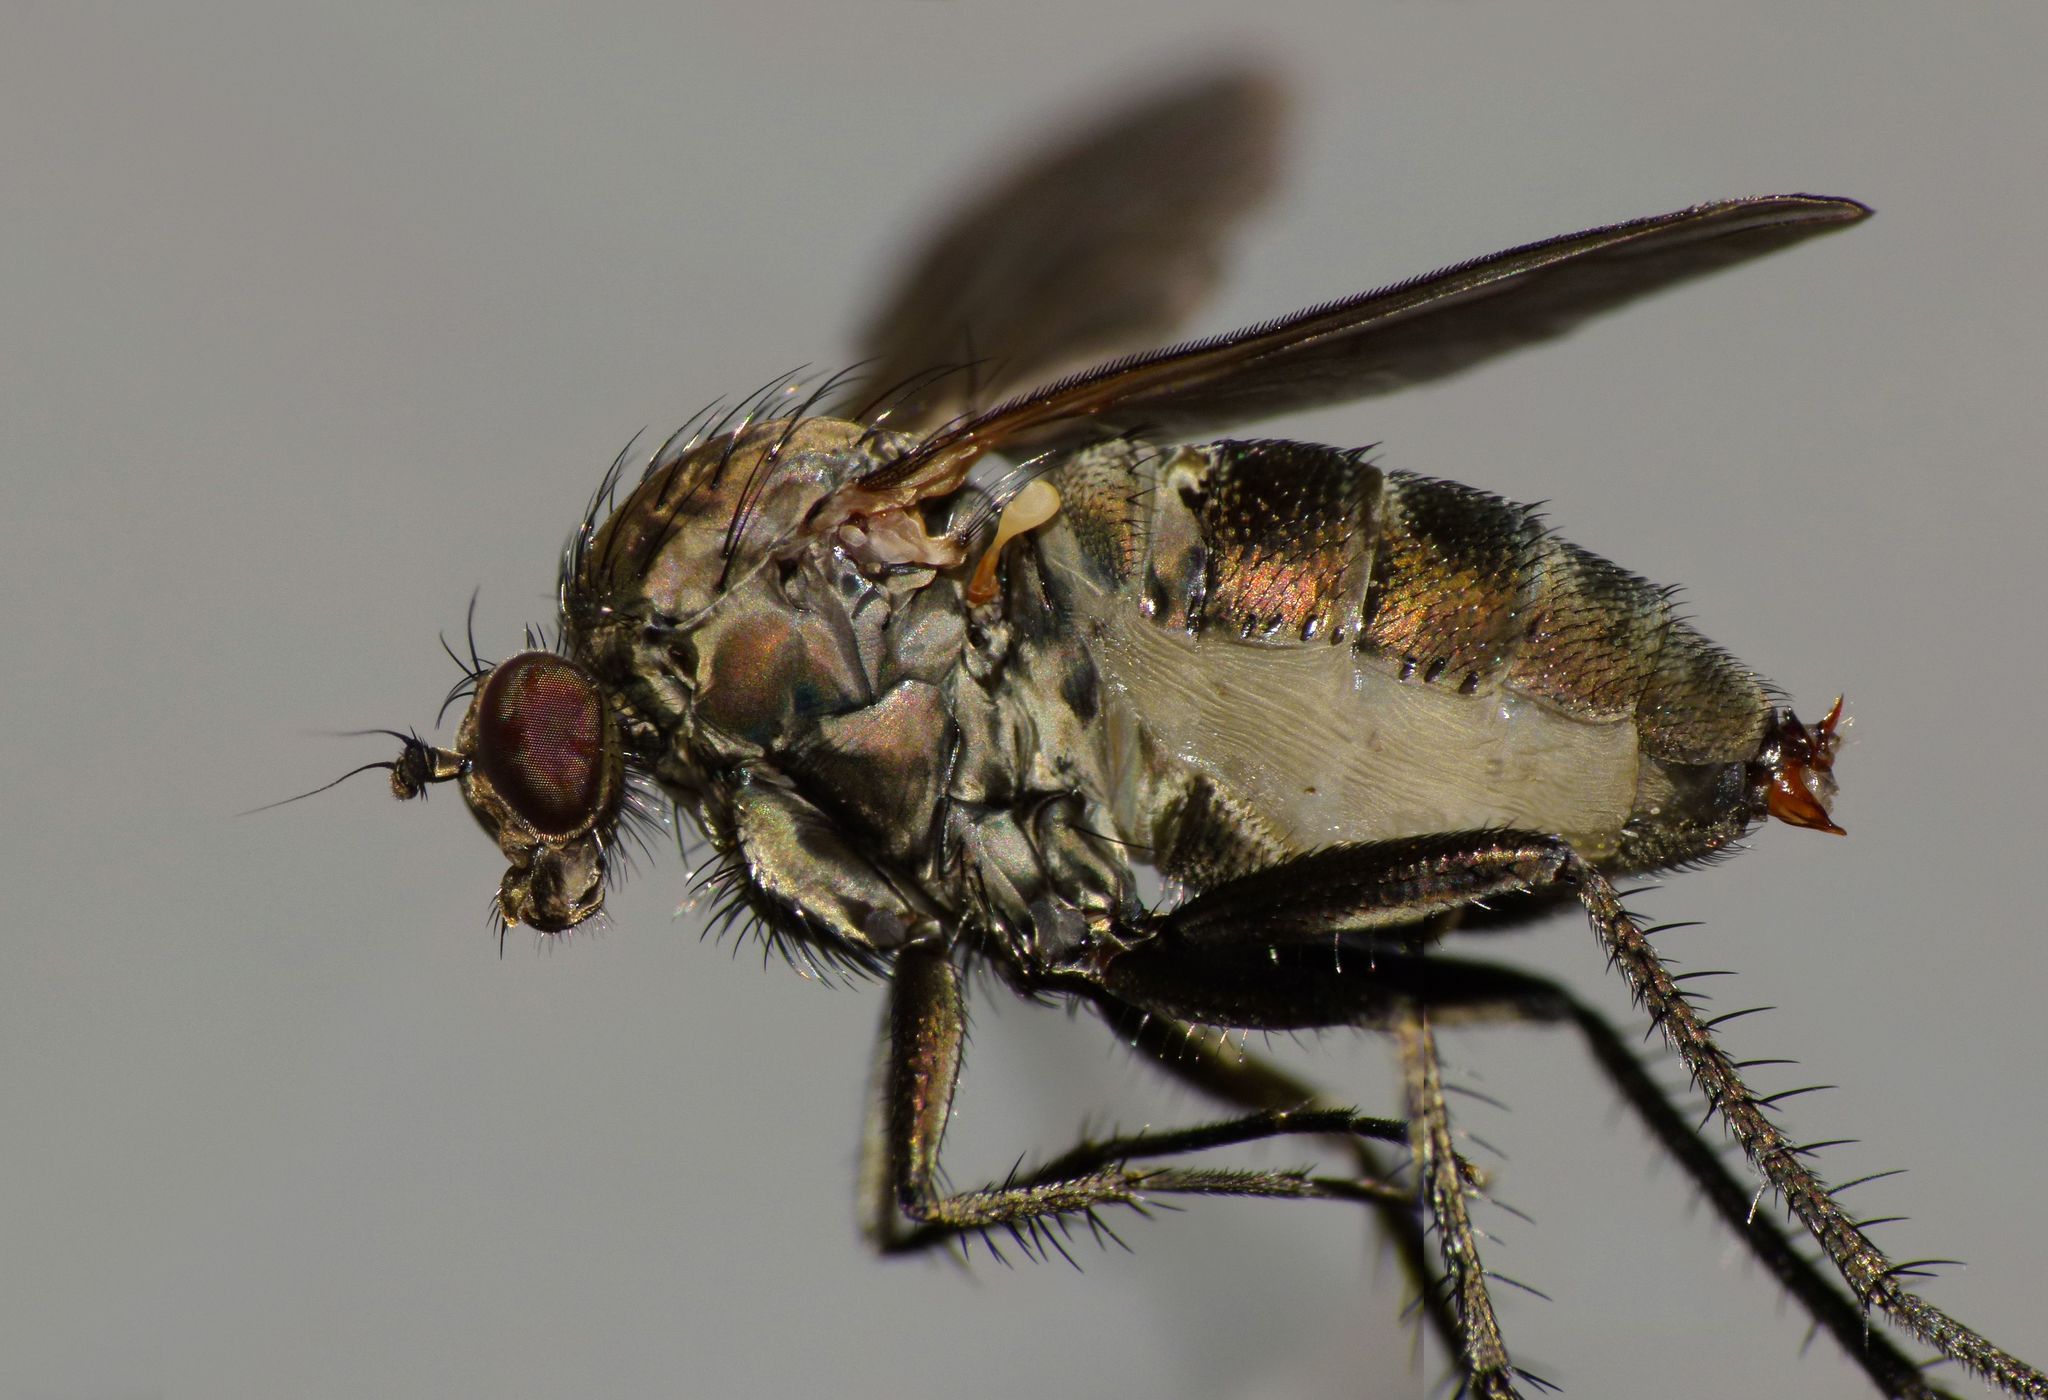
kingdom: Animalia
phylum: Arthropoda
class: Insecta
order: Diptera
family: Dolichopodidae
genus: Ostenia
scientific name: Ostenia robusta
